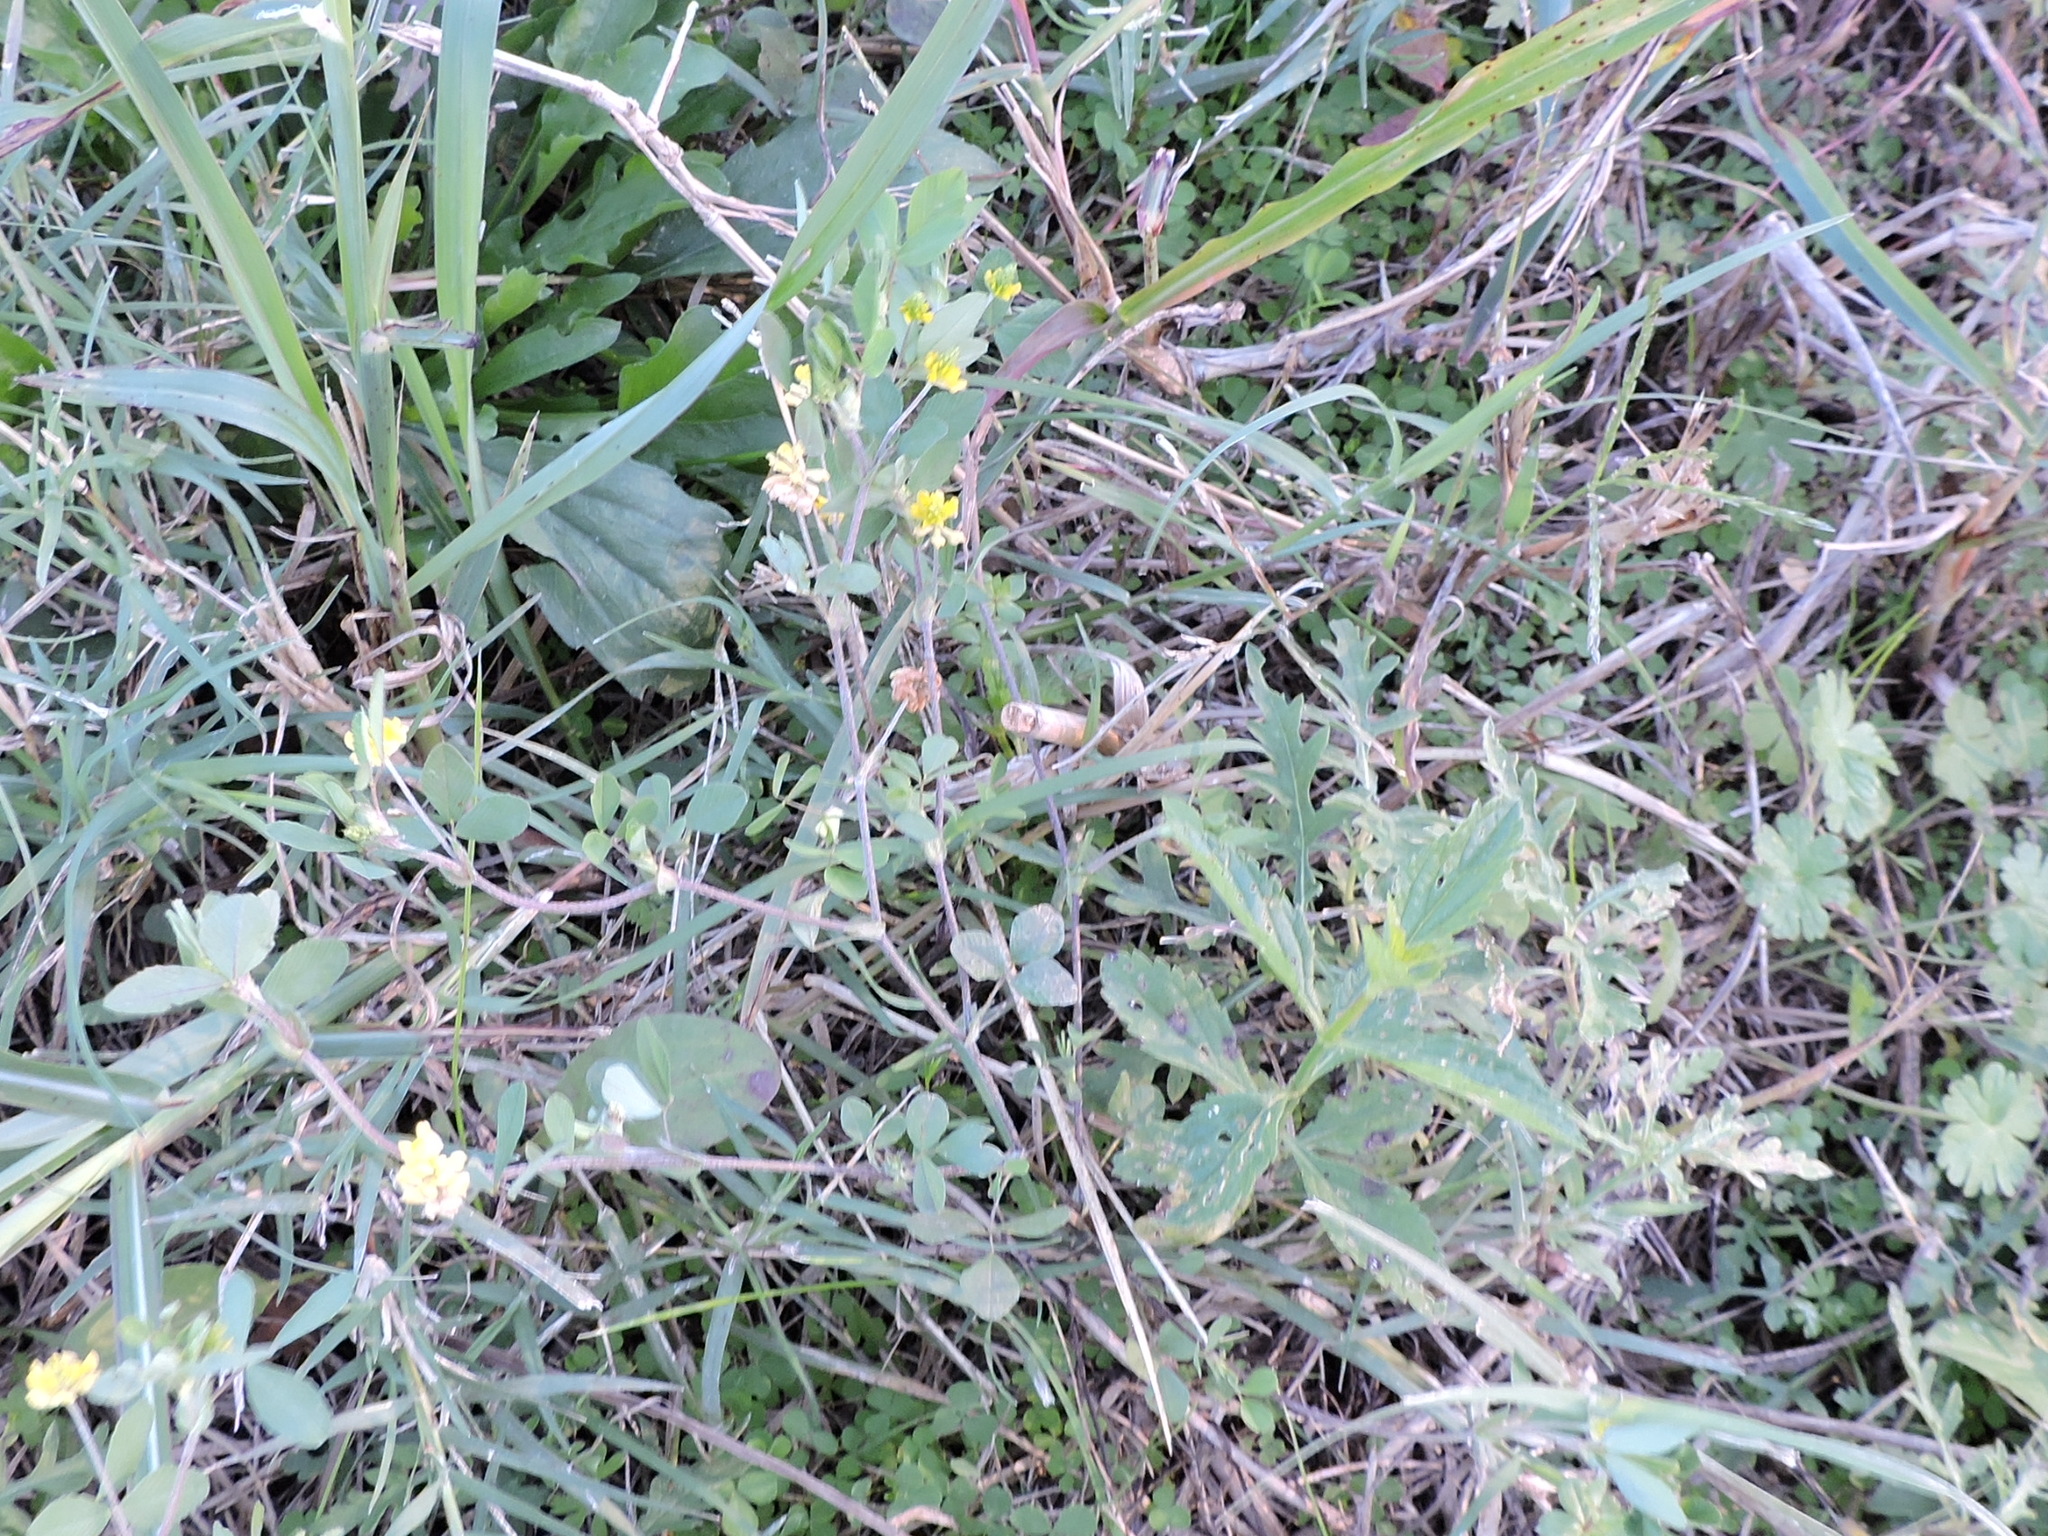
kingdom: Plantae
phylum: Tracheophyta
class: Magnoliopsida
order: Fabales
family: Fabaceae
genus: Trifolium
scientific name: Trifolium campestre
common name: Field clover
